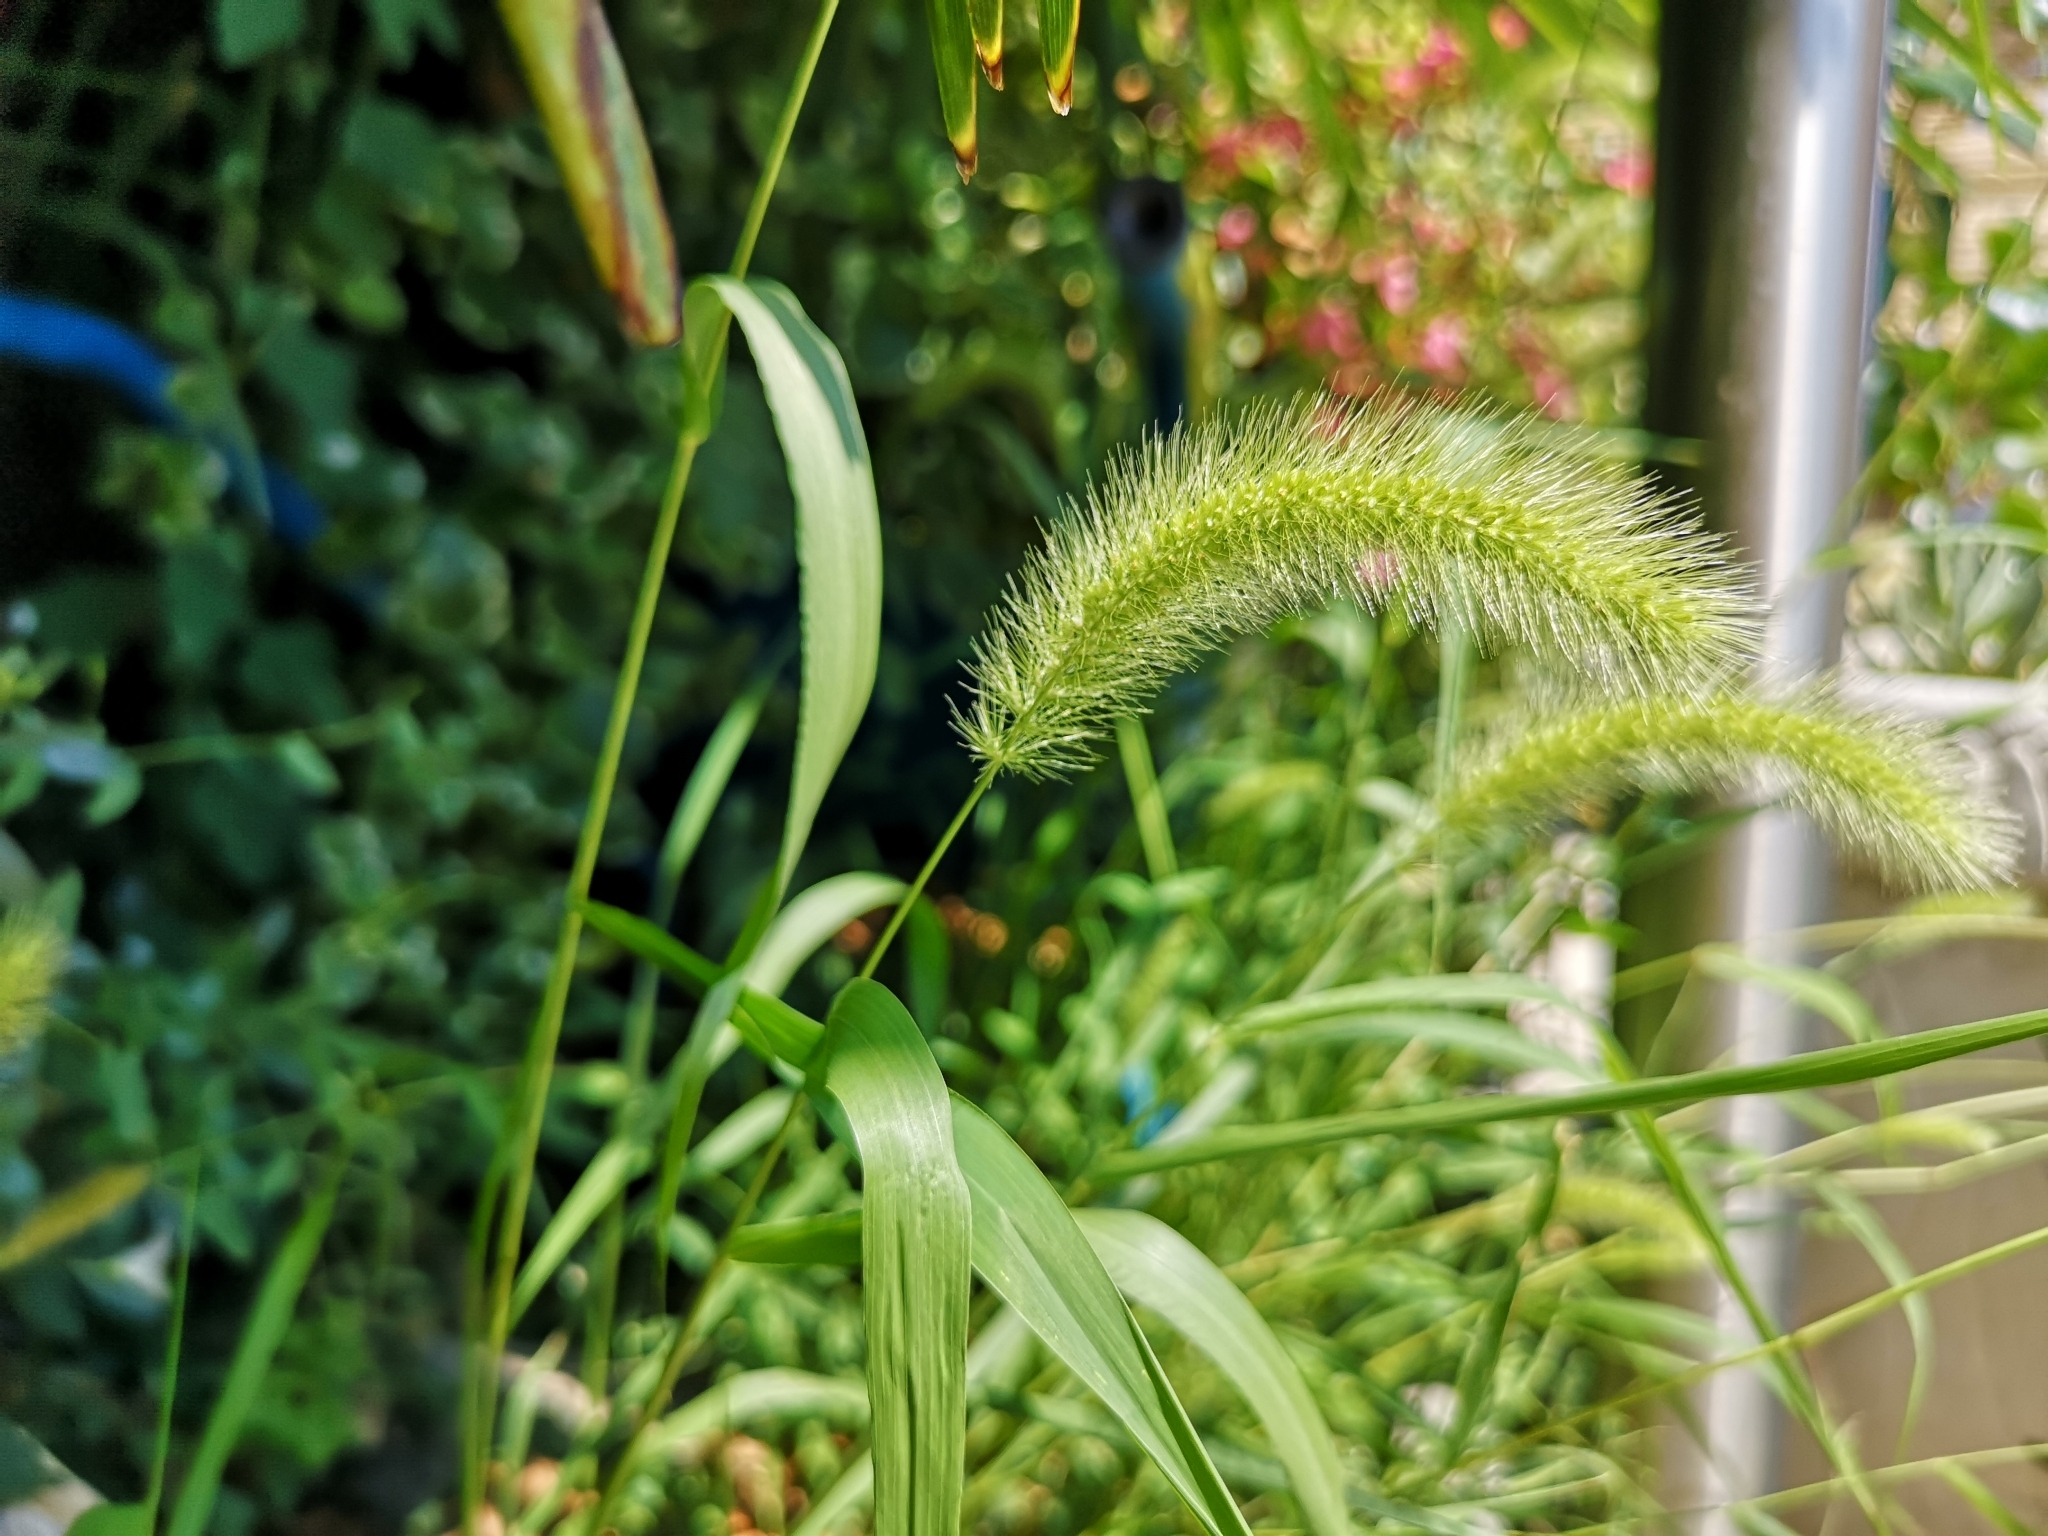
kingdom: Plantae
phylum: Tracheophyta
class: Liliopsida
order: Poales
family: Poaceae
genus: Setaria
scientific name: Setaria viridis
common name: Green bristlegrass
